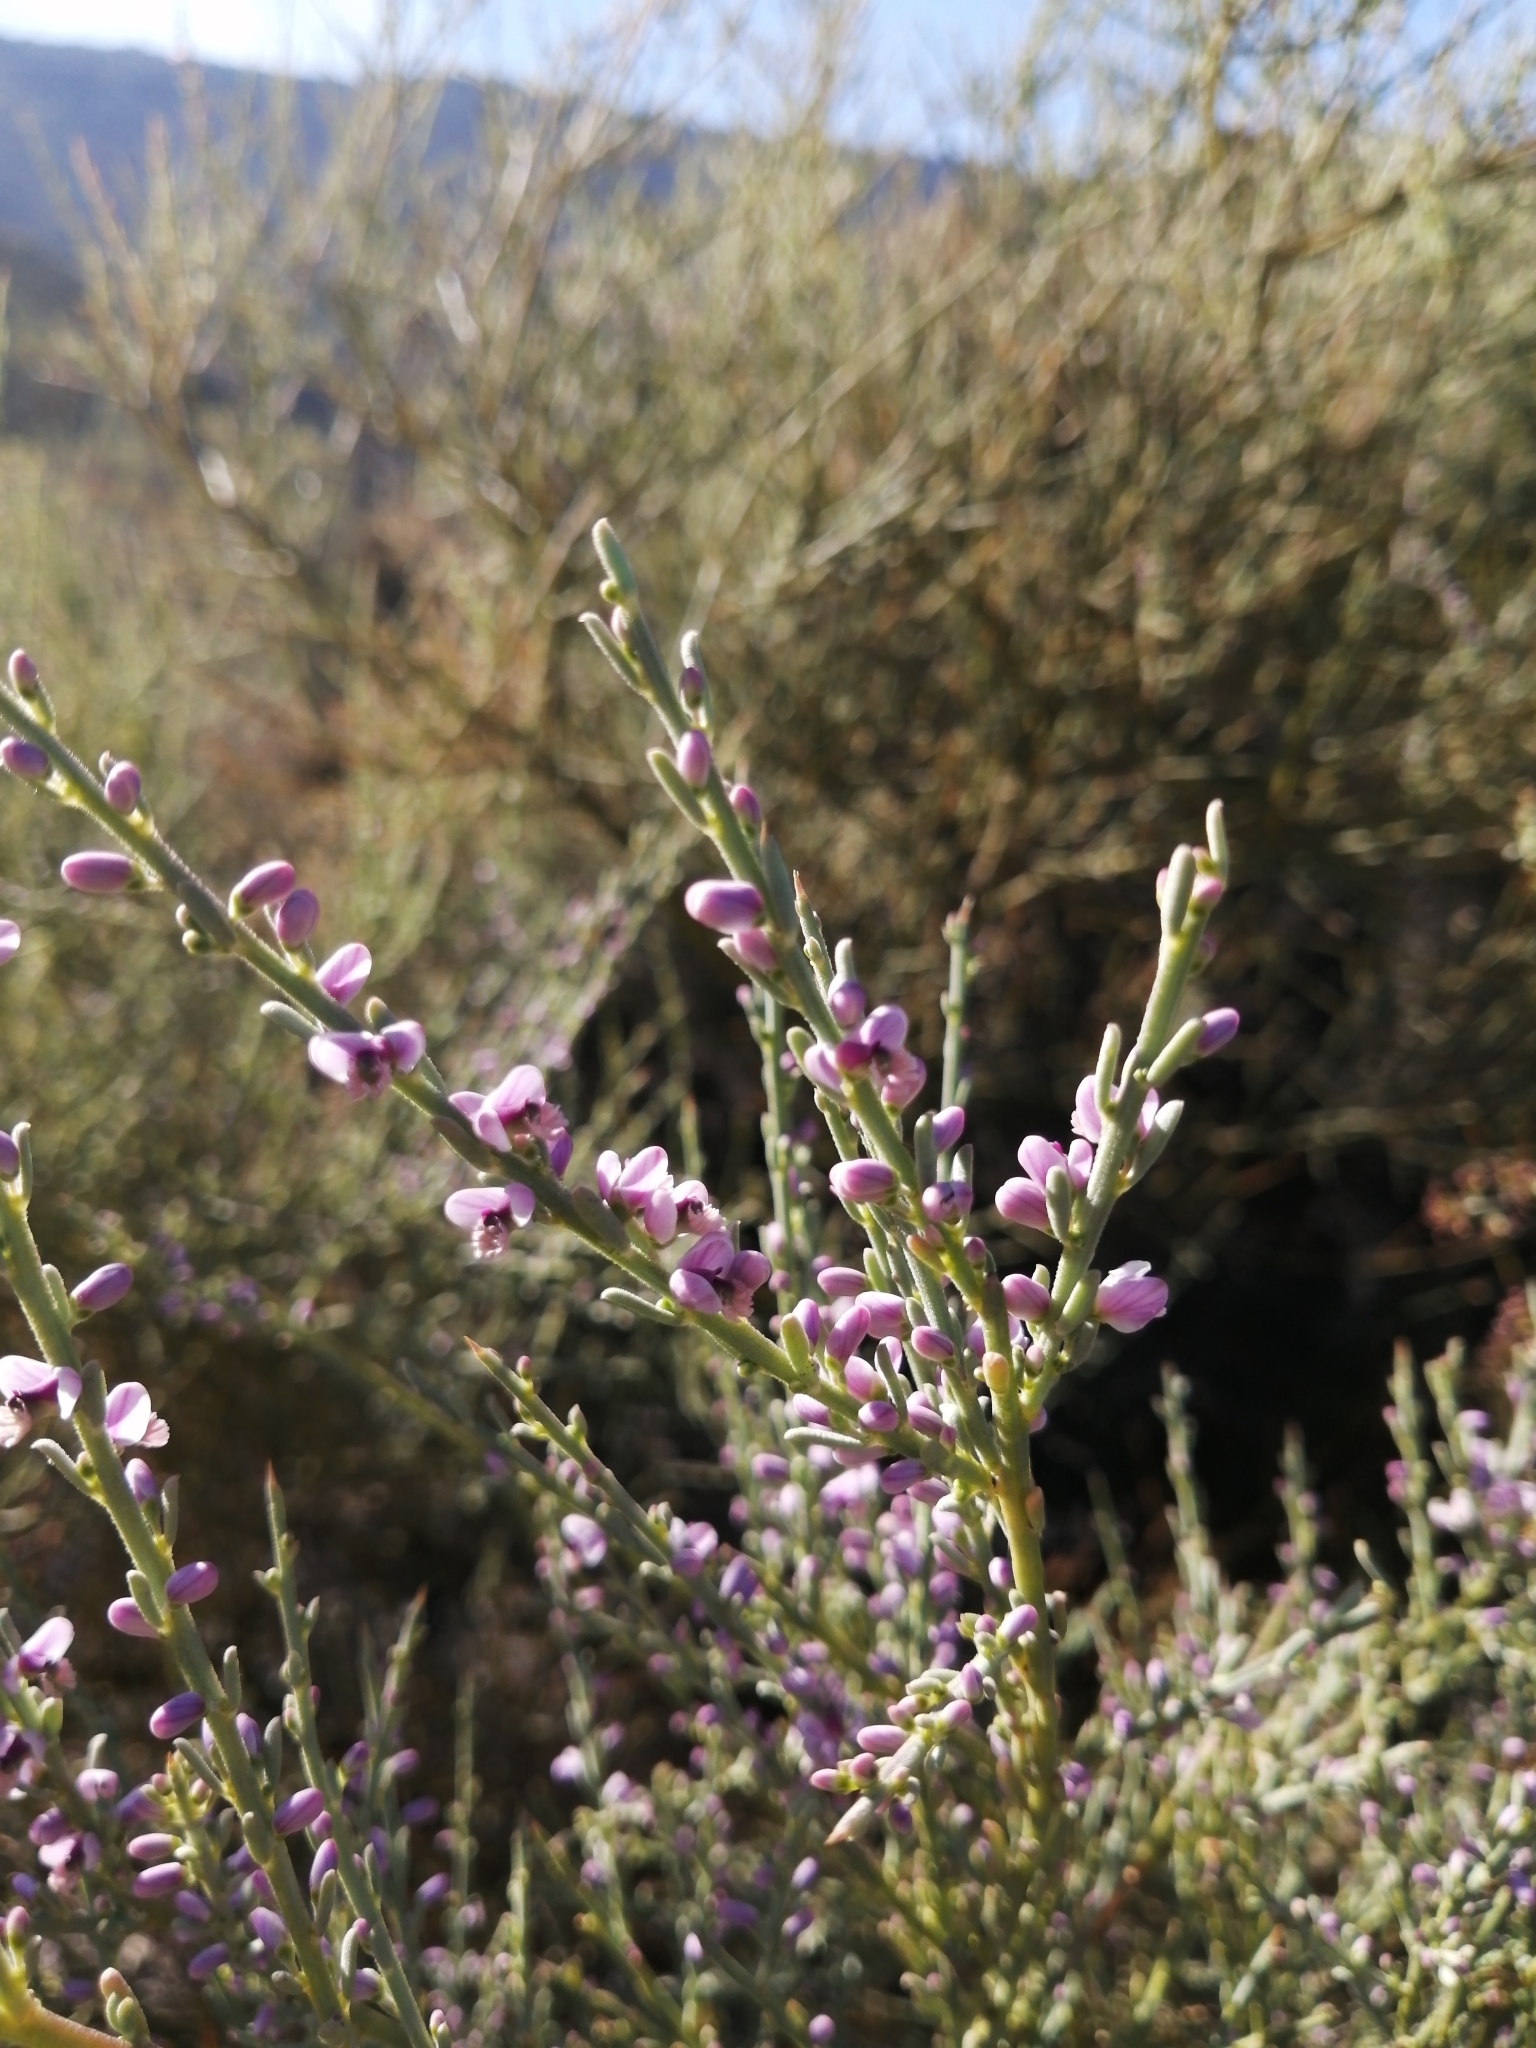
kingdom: Plantae
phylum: Tracheophyta
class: Magnoliopsida
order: Fabales
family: Polygalaceae
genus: Muraltia
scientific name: Muraltia spinosa
